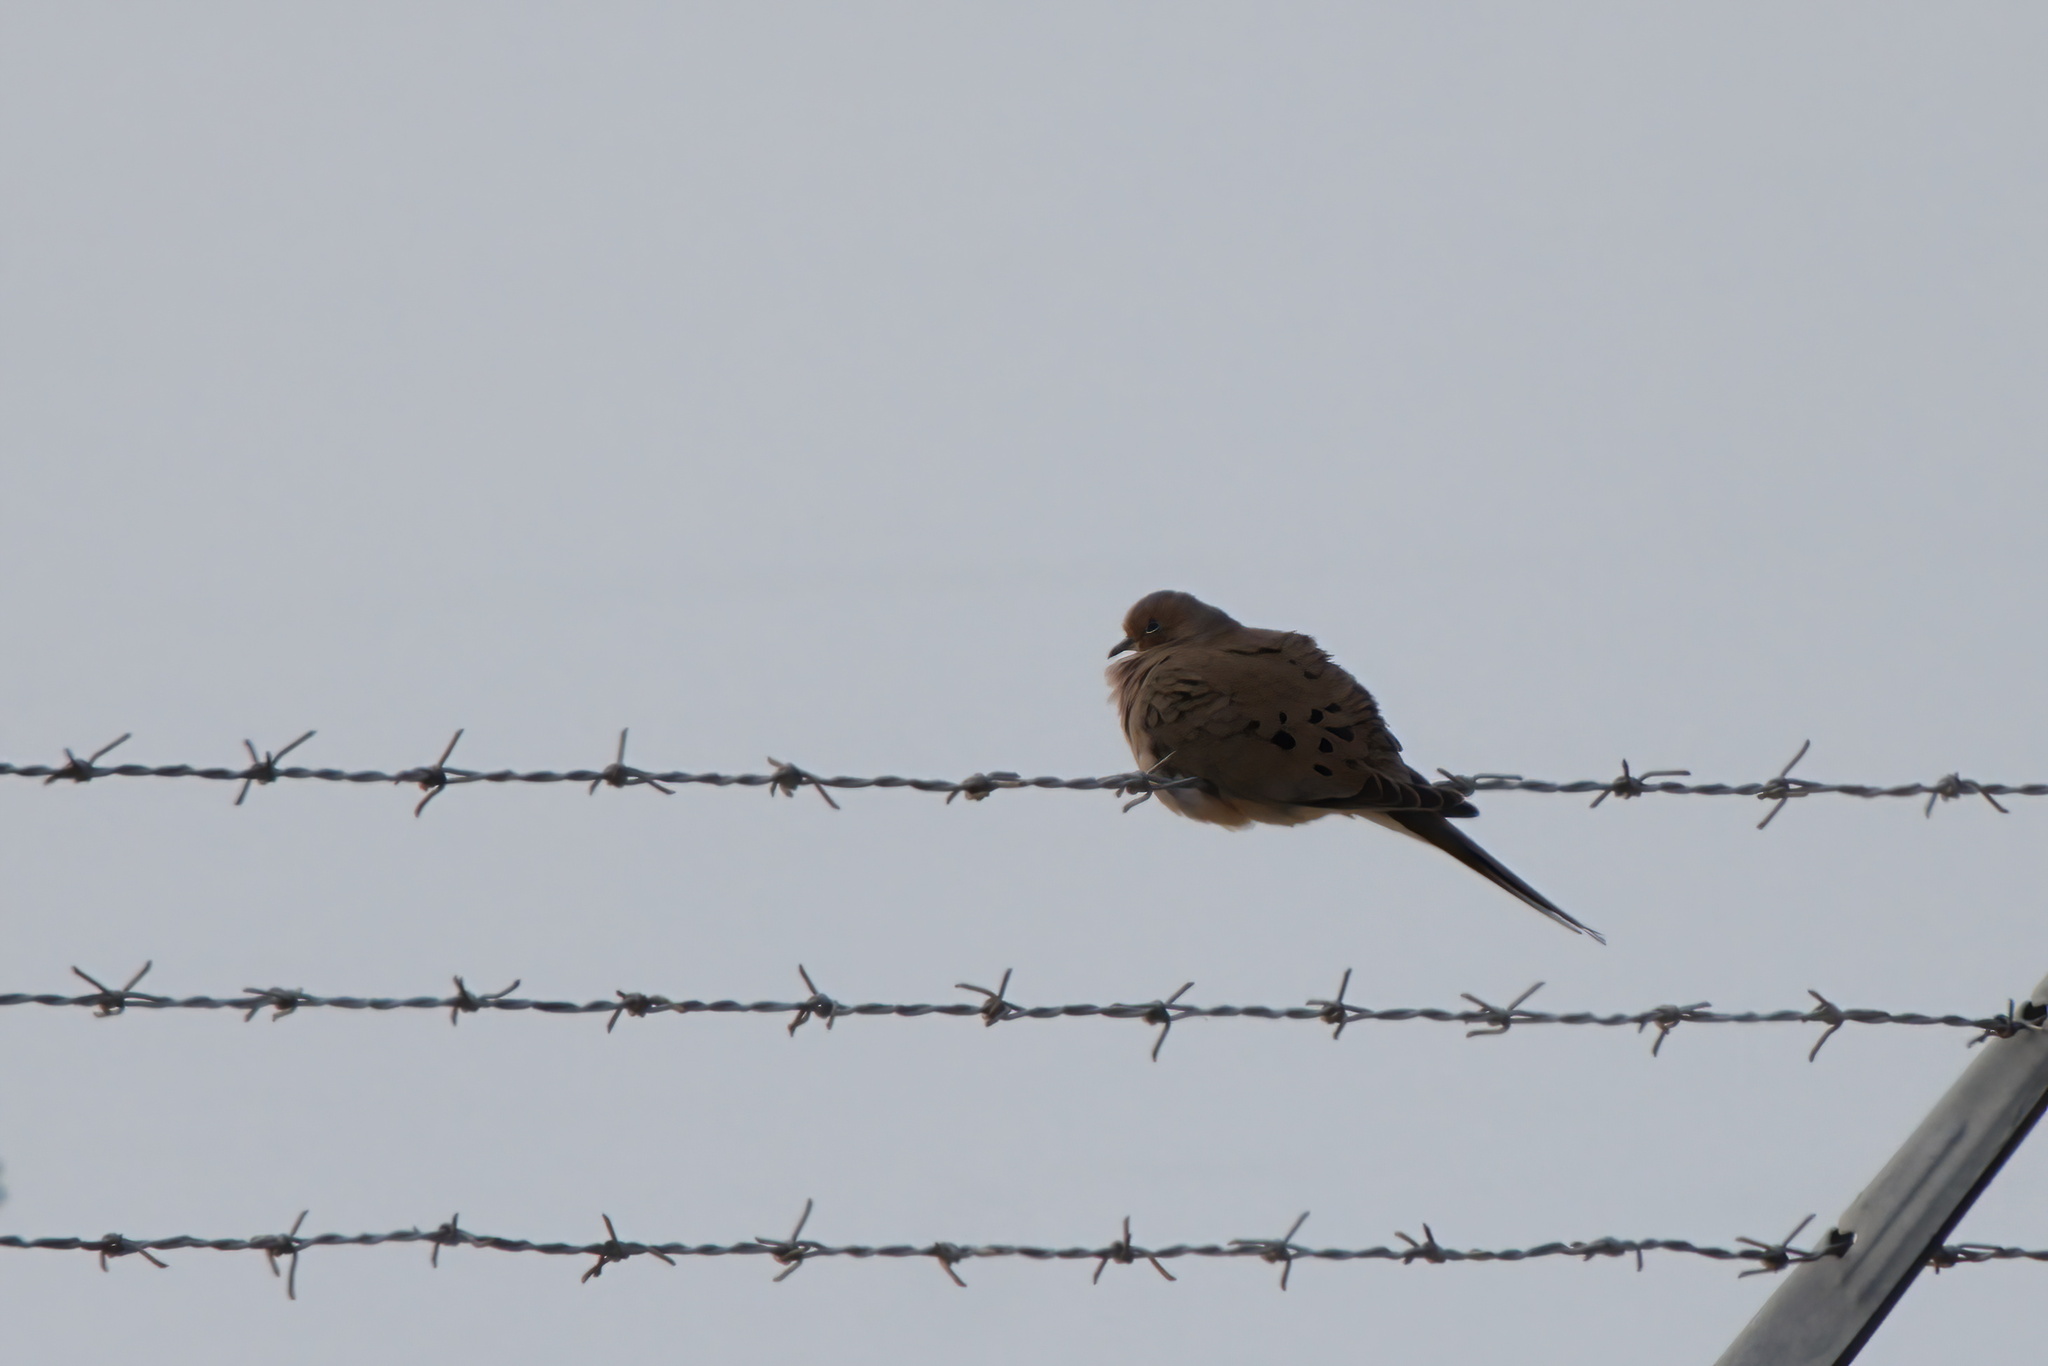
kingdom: Animalia
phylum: Chordata
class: Aves
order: Columbiformes
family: Columbidae
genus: Zenaida
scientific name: Zenaida macroura
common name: Mourning dove
